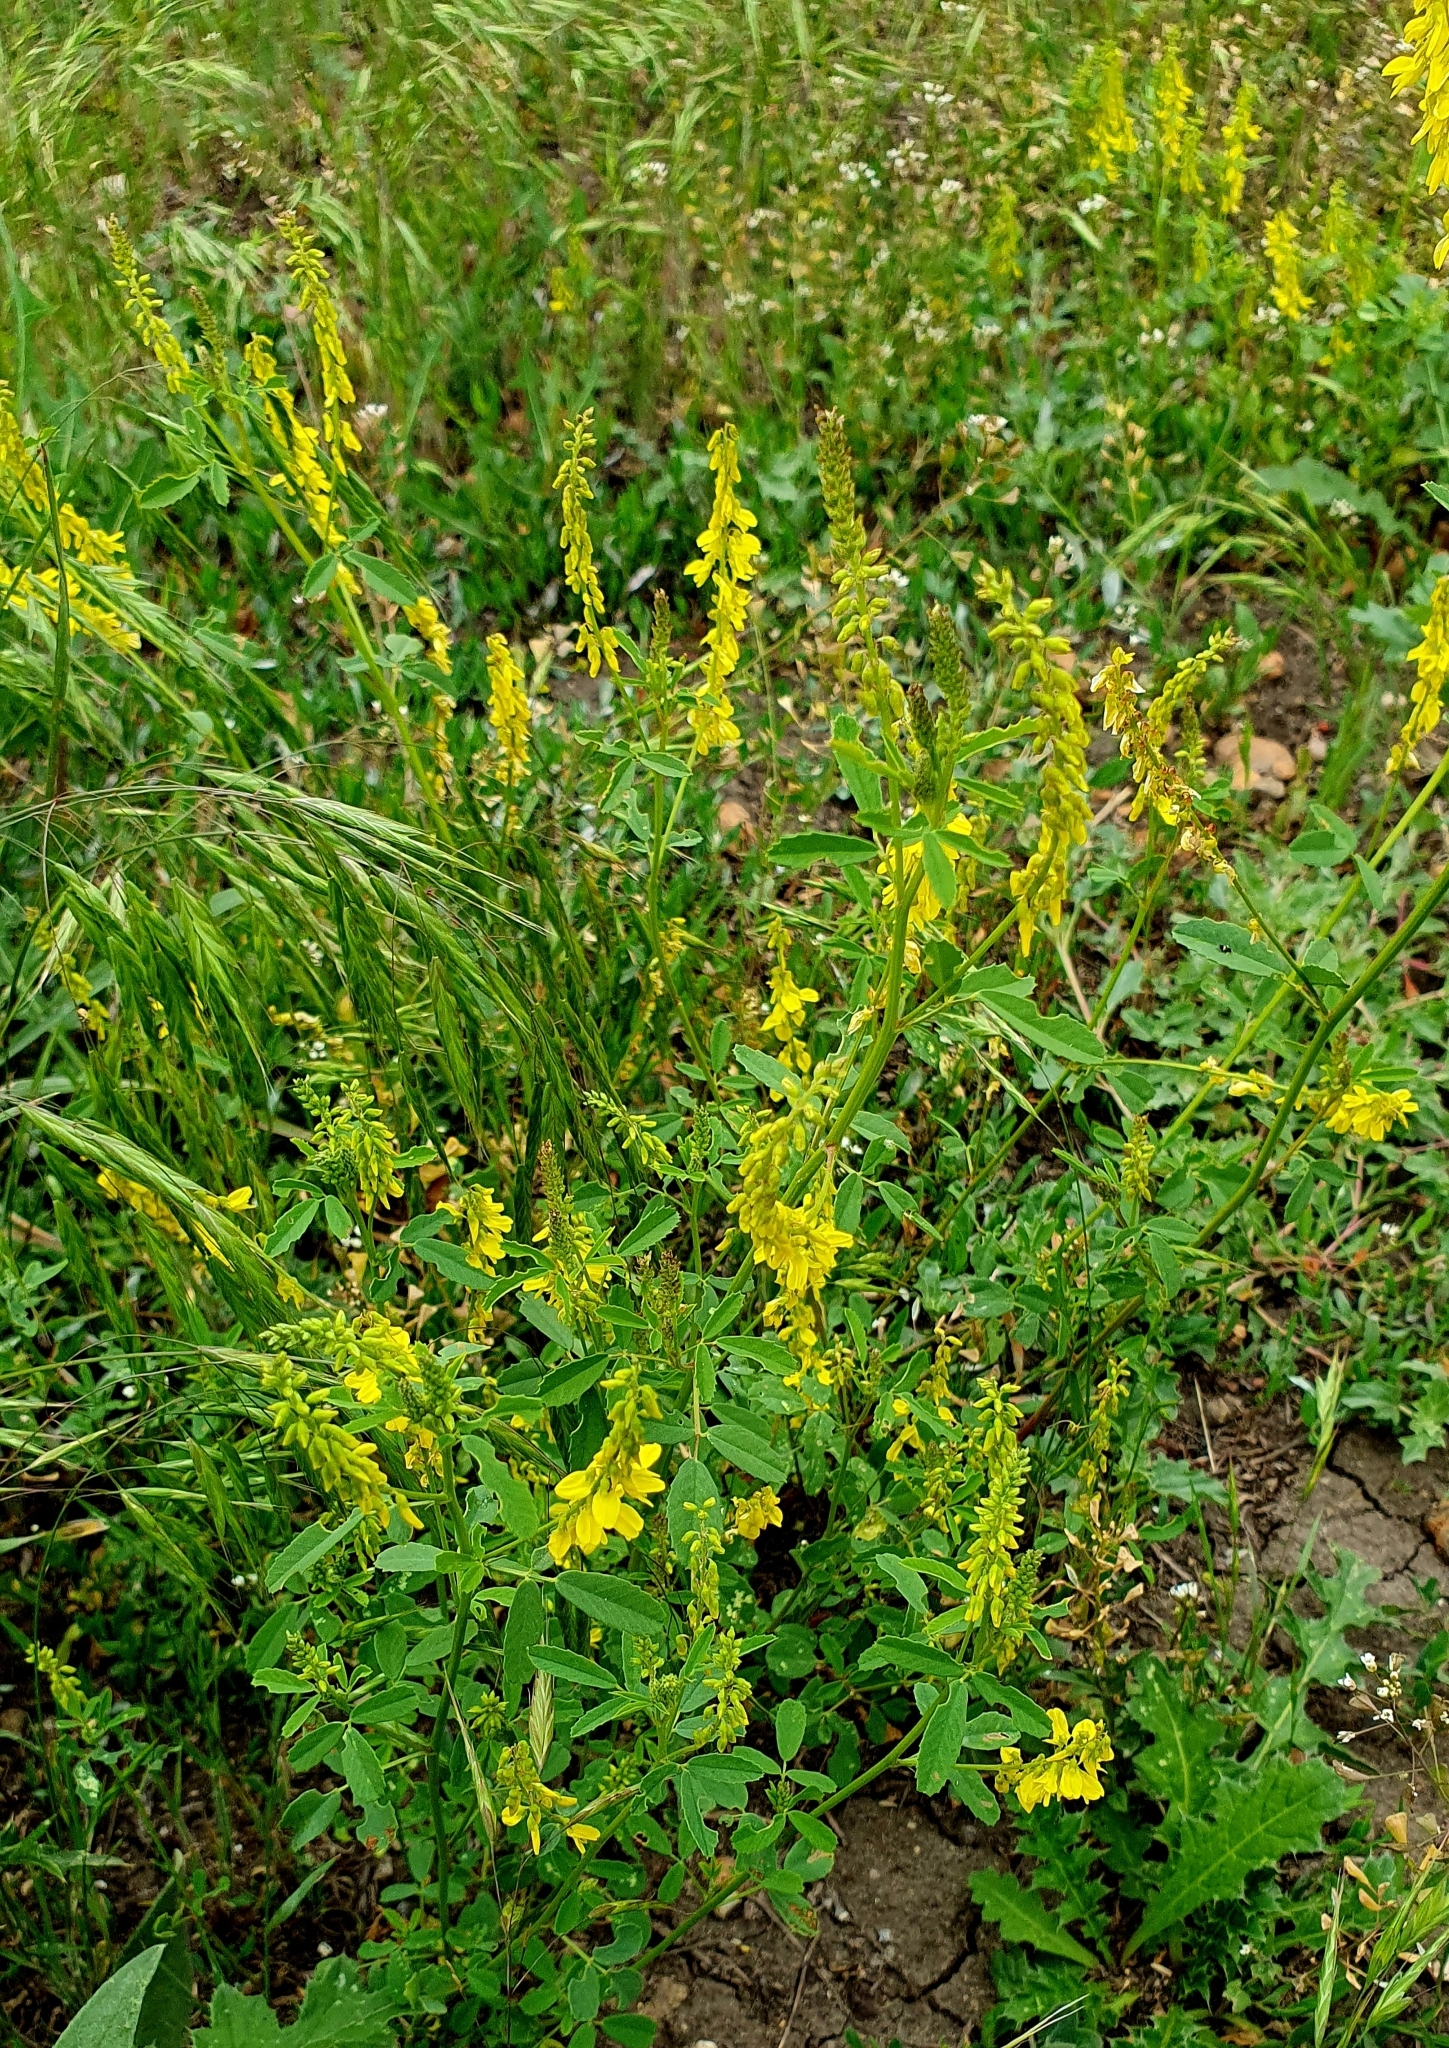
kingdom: Plantae
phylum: Tracheophyta
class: Magnoliopsida
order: Fabales
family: Fabaceae
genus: Melilotus
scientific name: Melilotus officinalis
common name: Sweetclover
